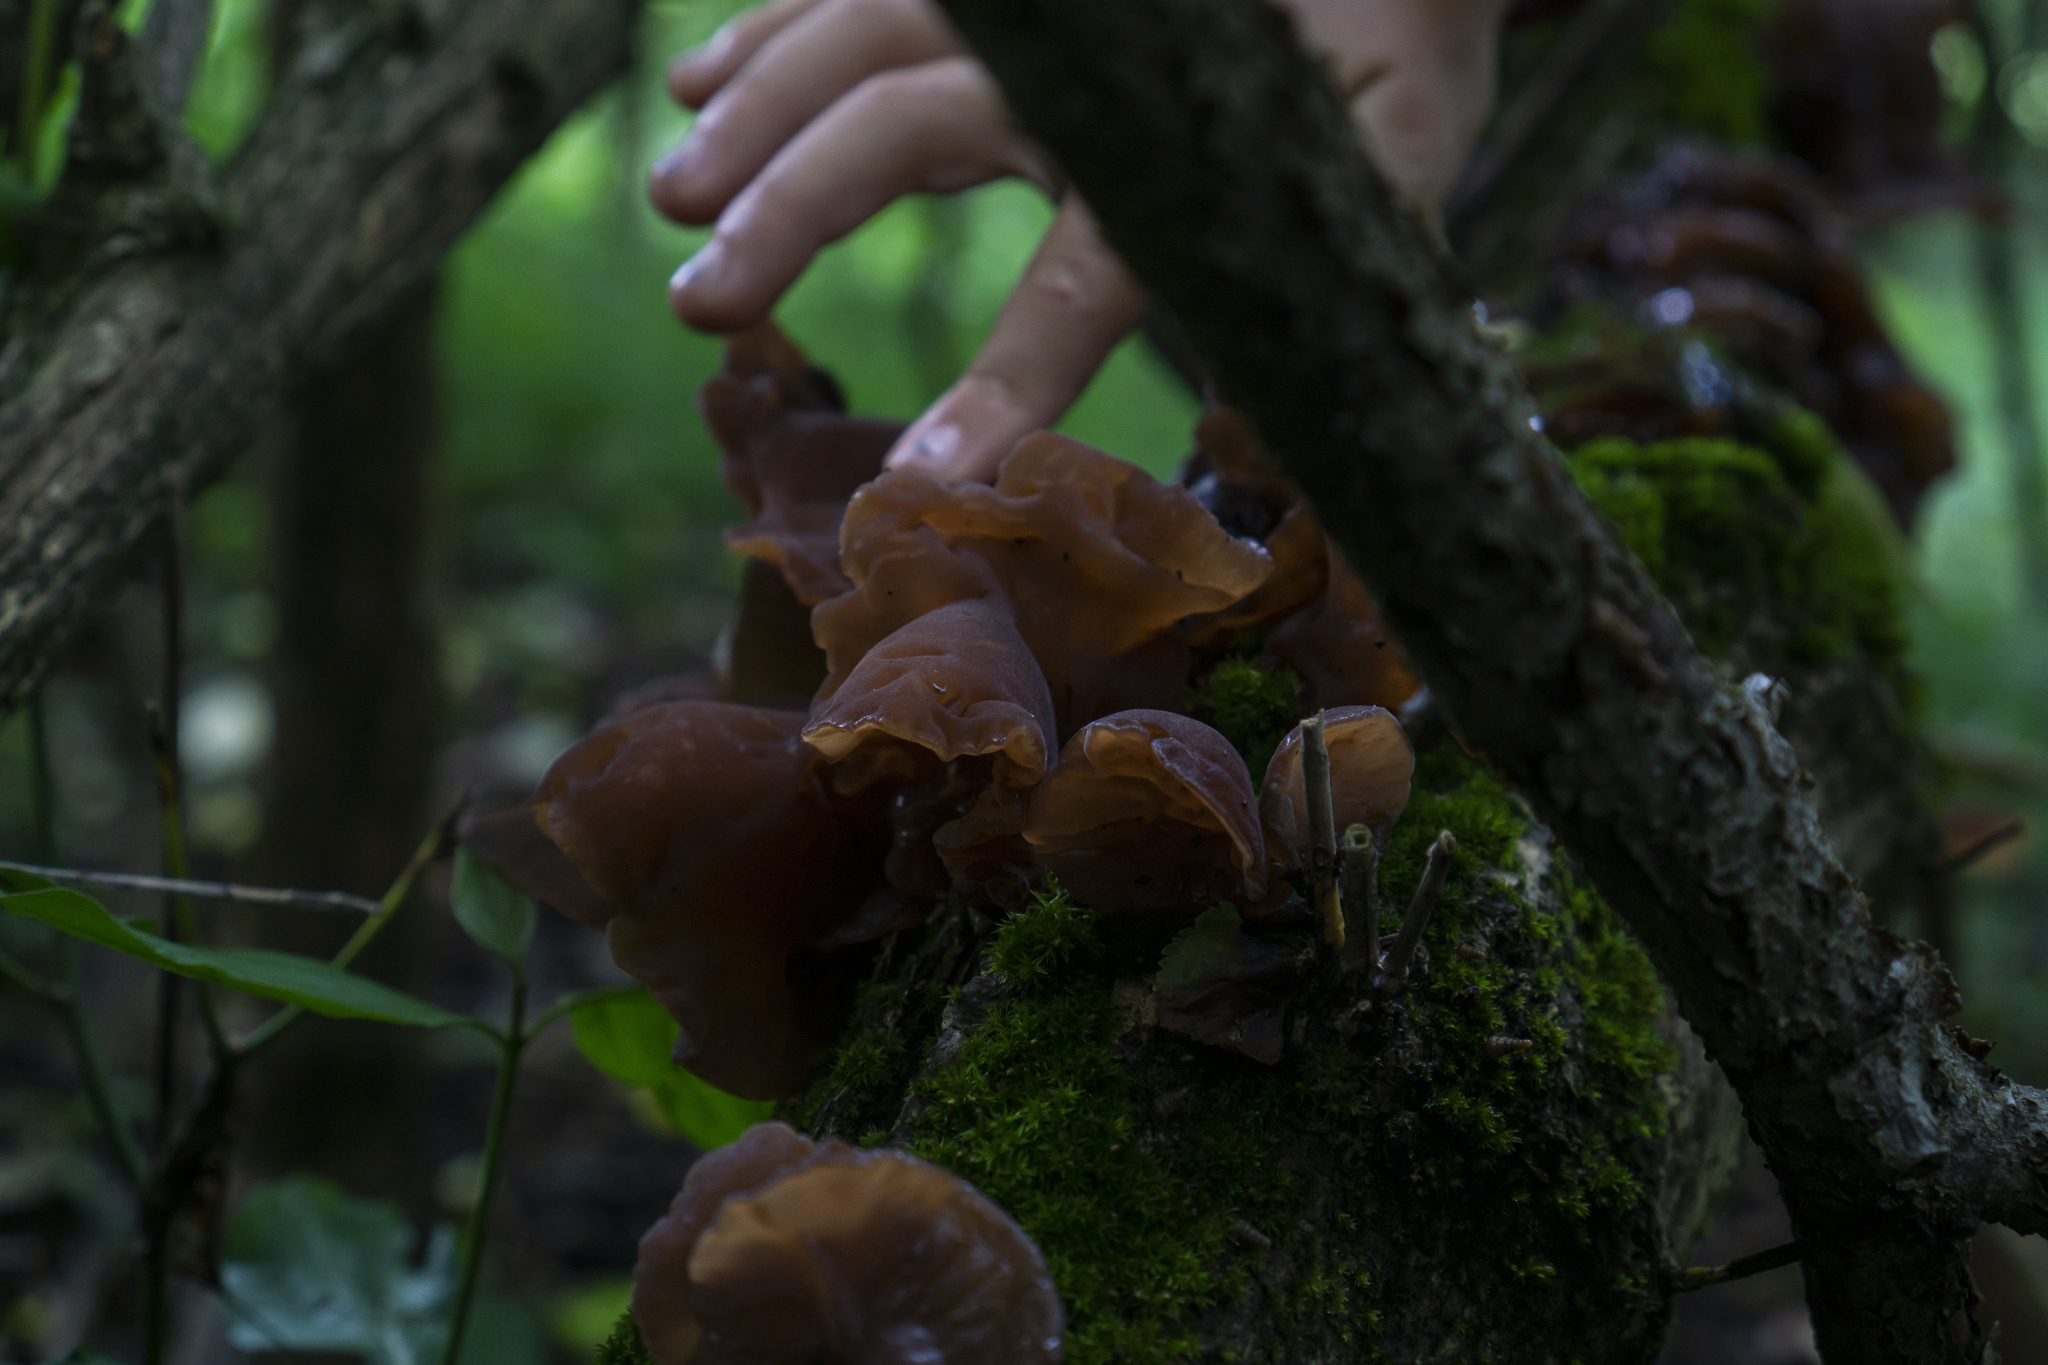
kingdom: Fungi
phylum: Basidiomycota
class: Agaricomycetes
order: Auriculariales
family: Auriculariaceae
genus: Auricularia
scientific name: Auricularia auricula-judae
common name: Jelly ear
